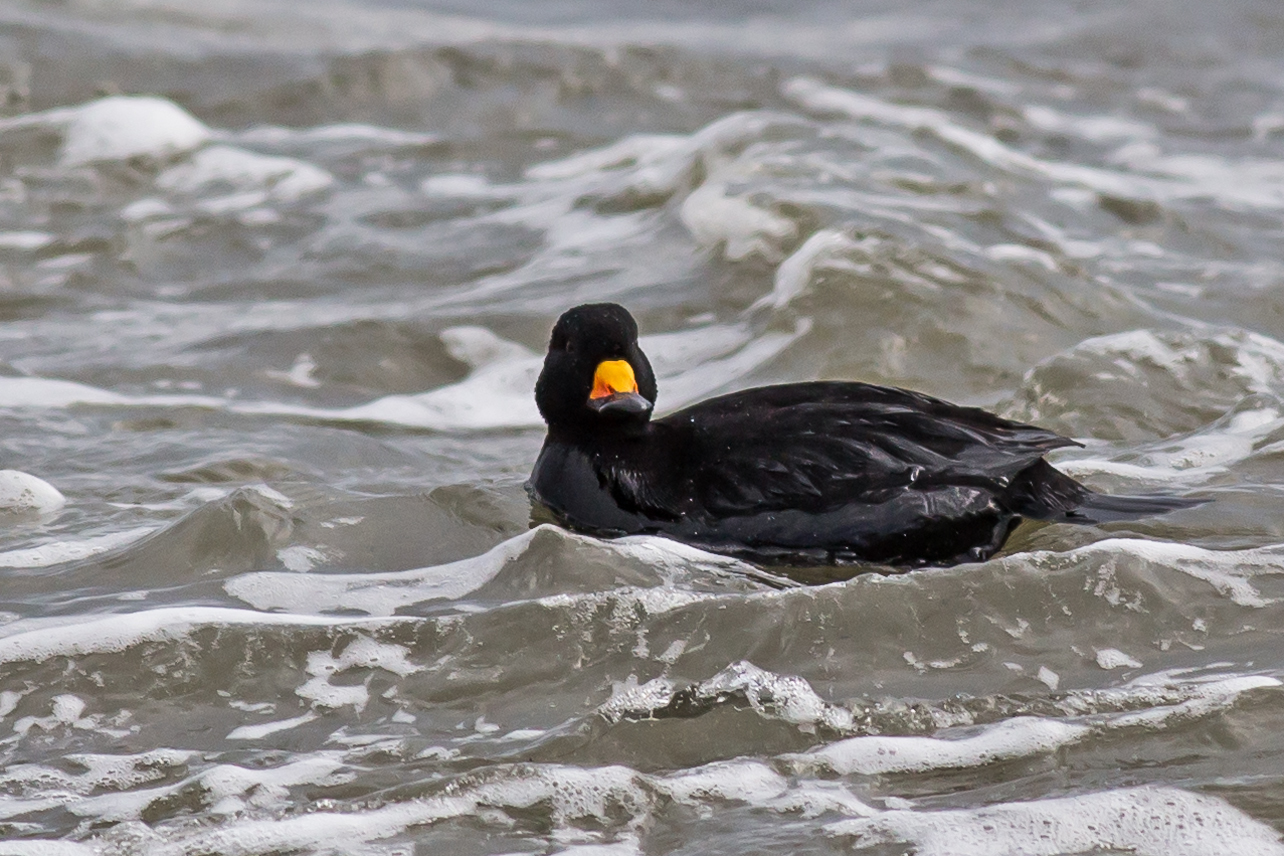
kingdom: Animalia
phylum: Chordata
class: Aves
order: Anseriformes
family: Anatidae
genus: Melanitta
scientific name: Melanitta americana
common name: Black scoter
